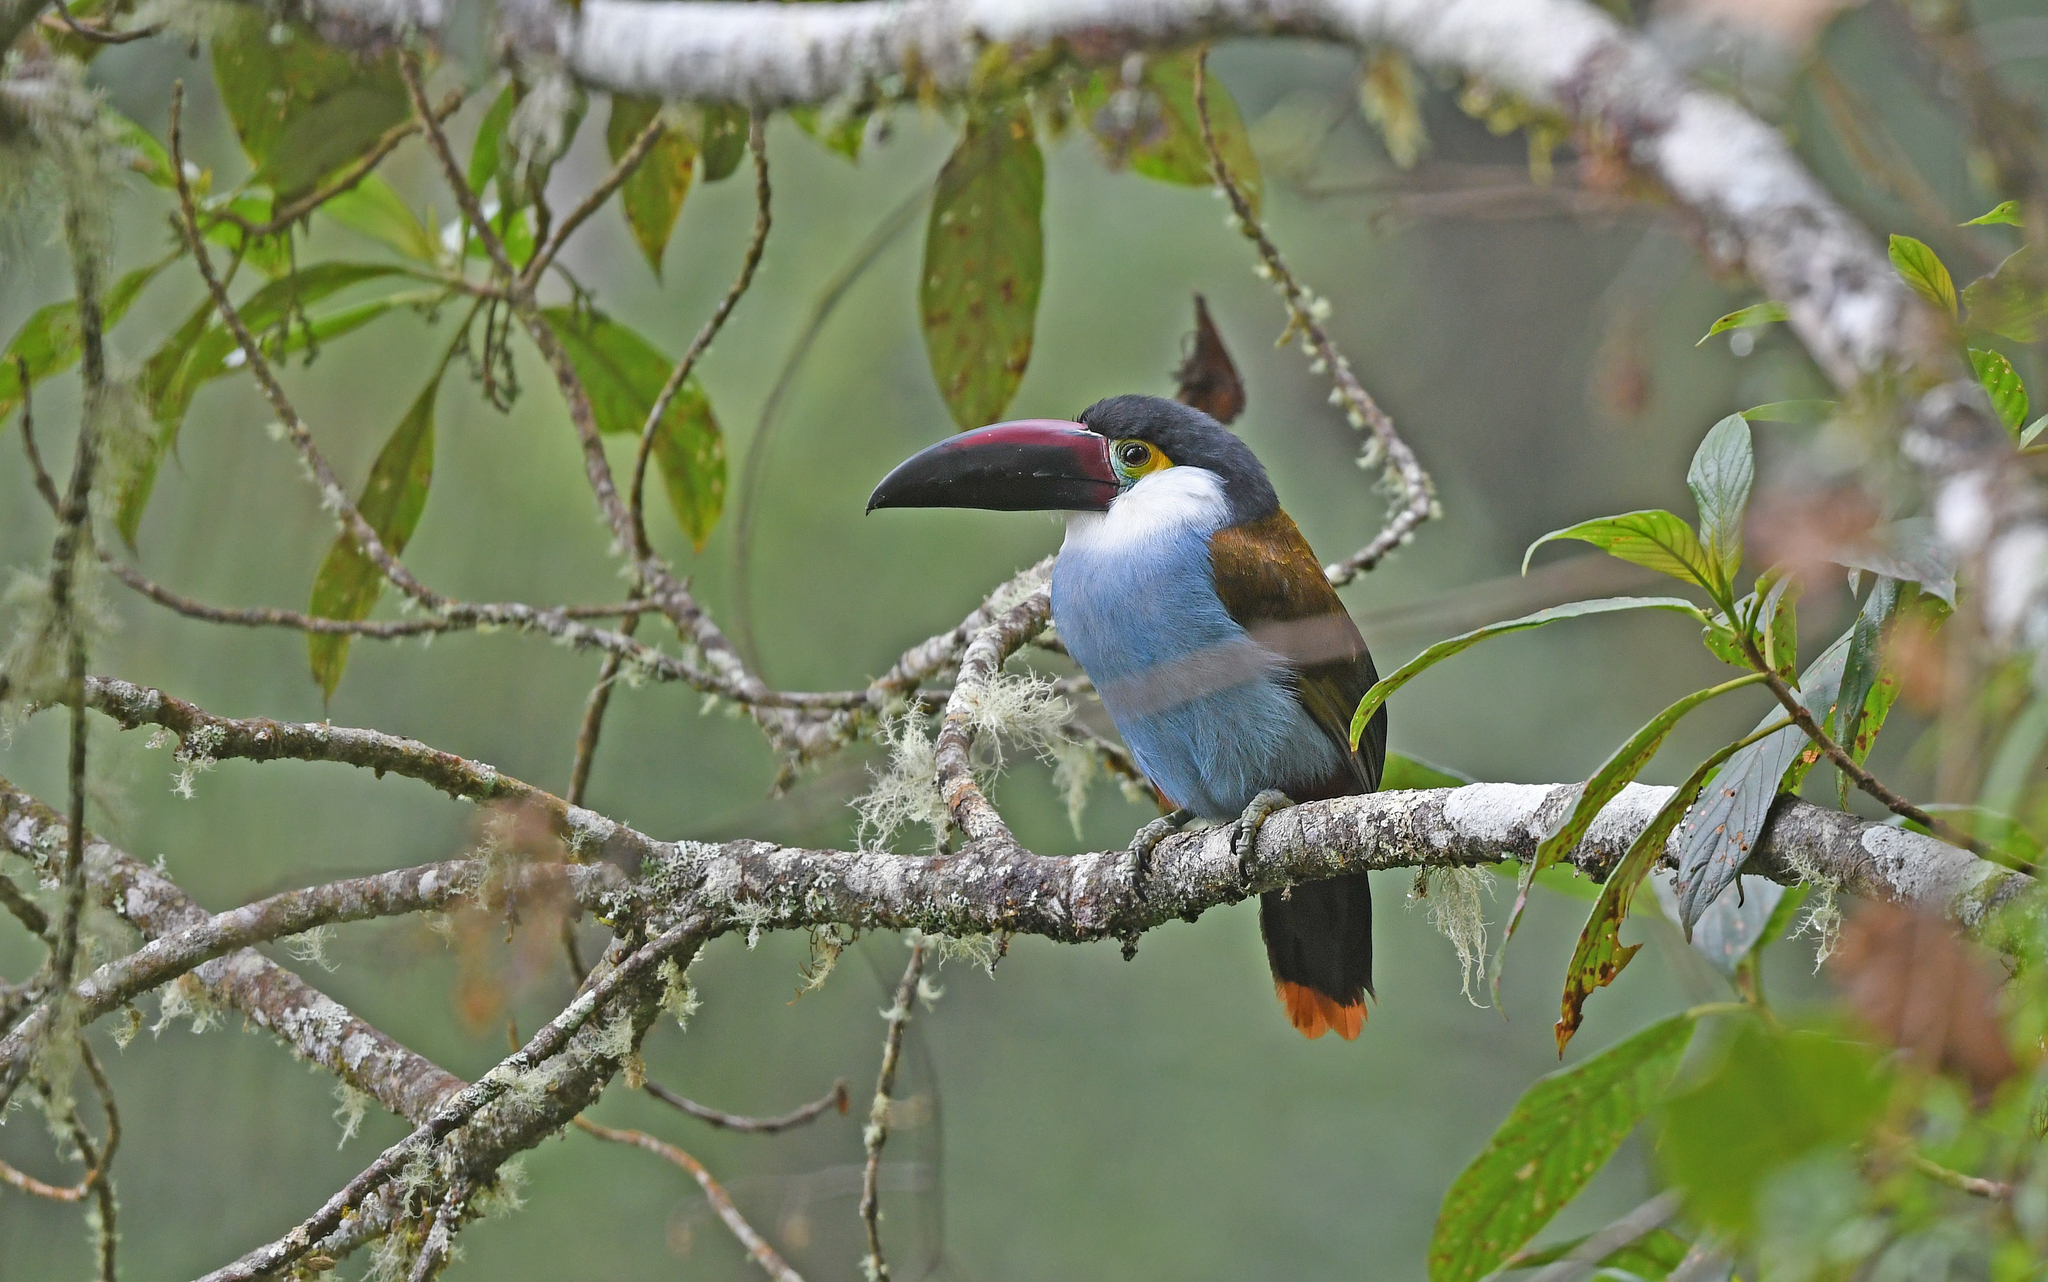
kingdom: Animalia
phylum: Chordata
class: Aves
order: Piciformes
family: Ramphastidae
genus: Andigena
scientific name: Andigena nigrirostris
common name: Black-billed mountain toucan
